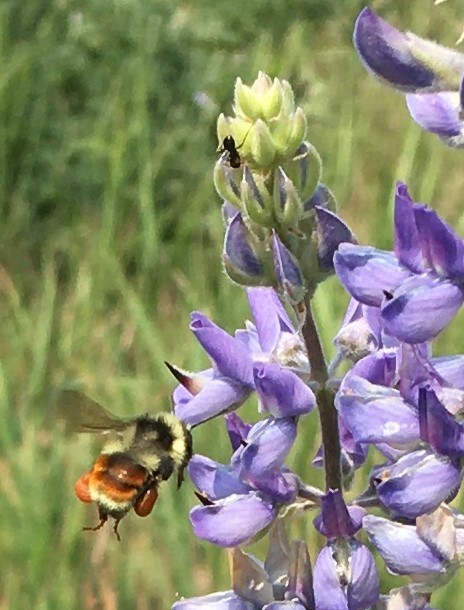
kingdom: Animalia
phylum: Arthropoda
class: Insecta
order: Hymenoptera
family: Apidae
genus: Bombus
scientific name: Bombus bifarius
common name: Two form bumble bee
